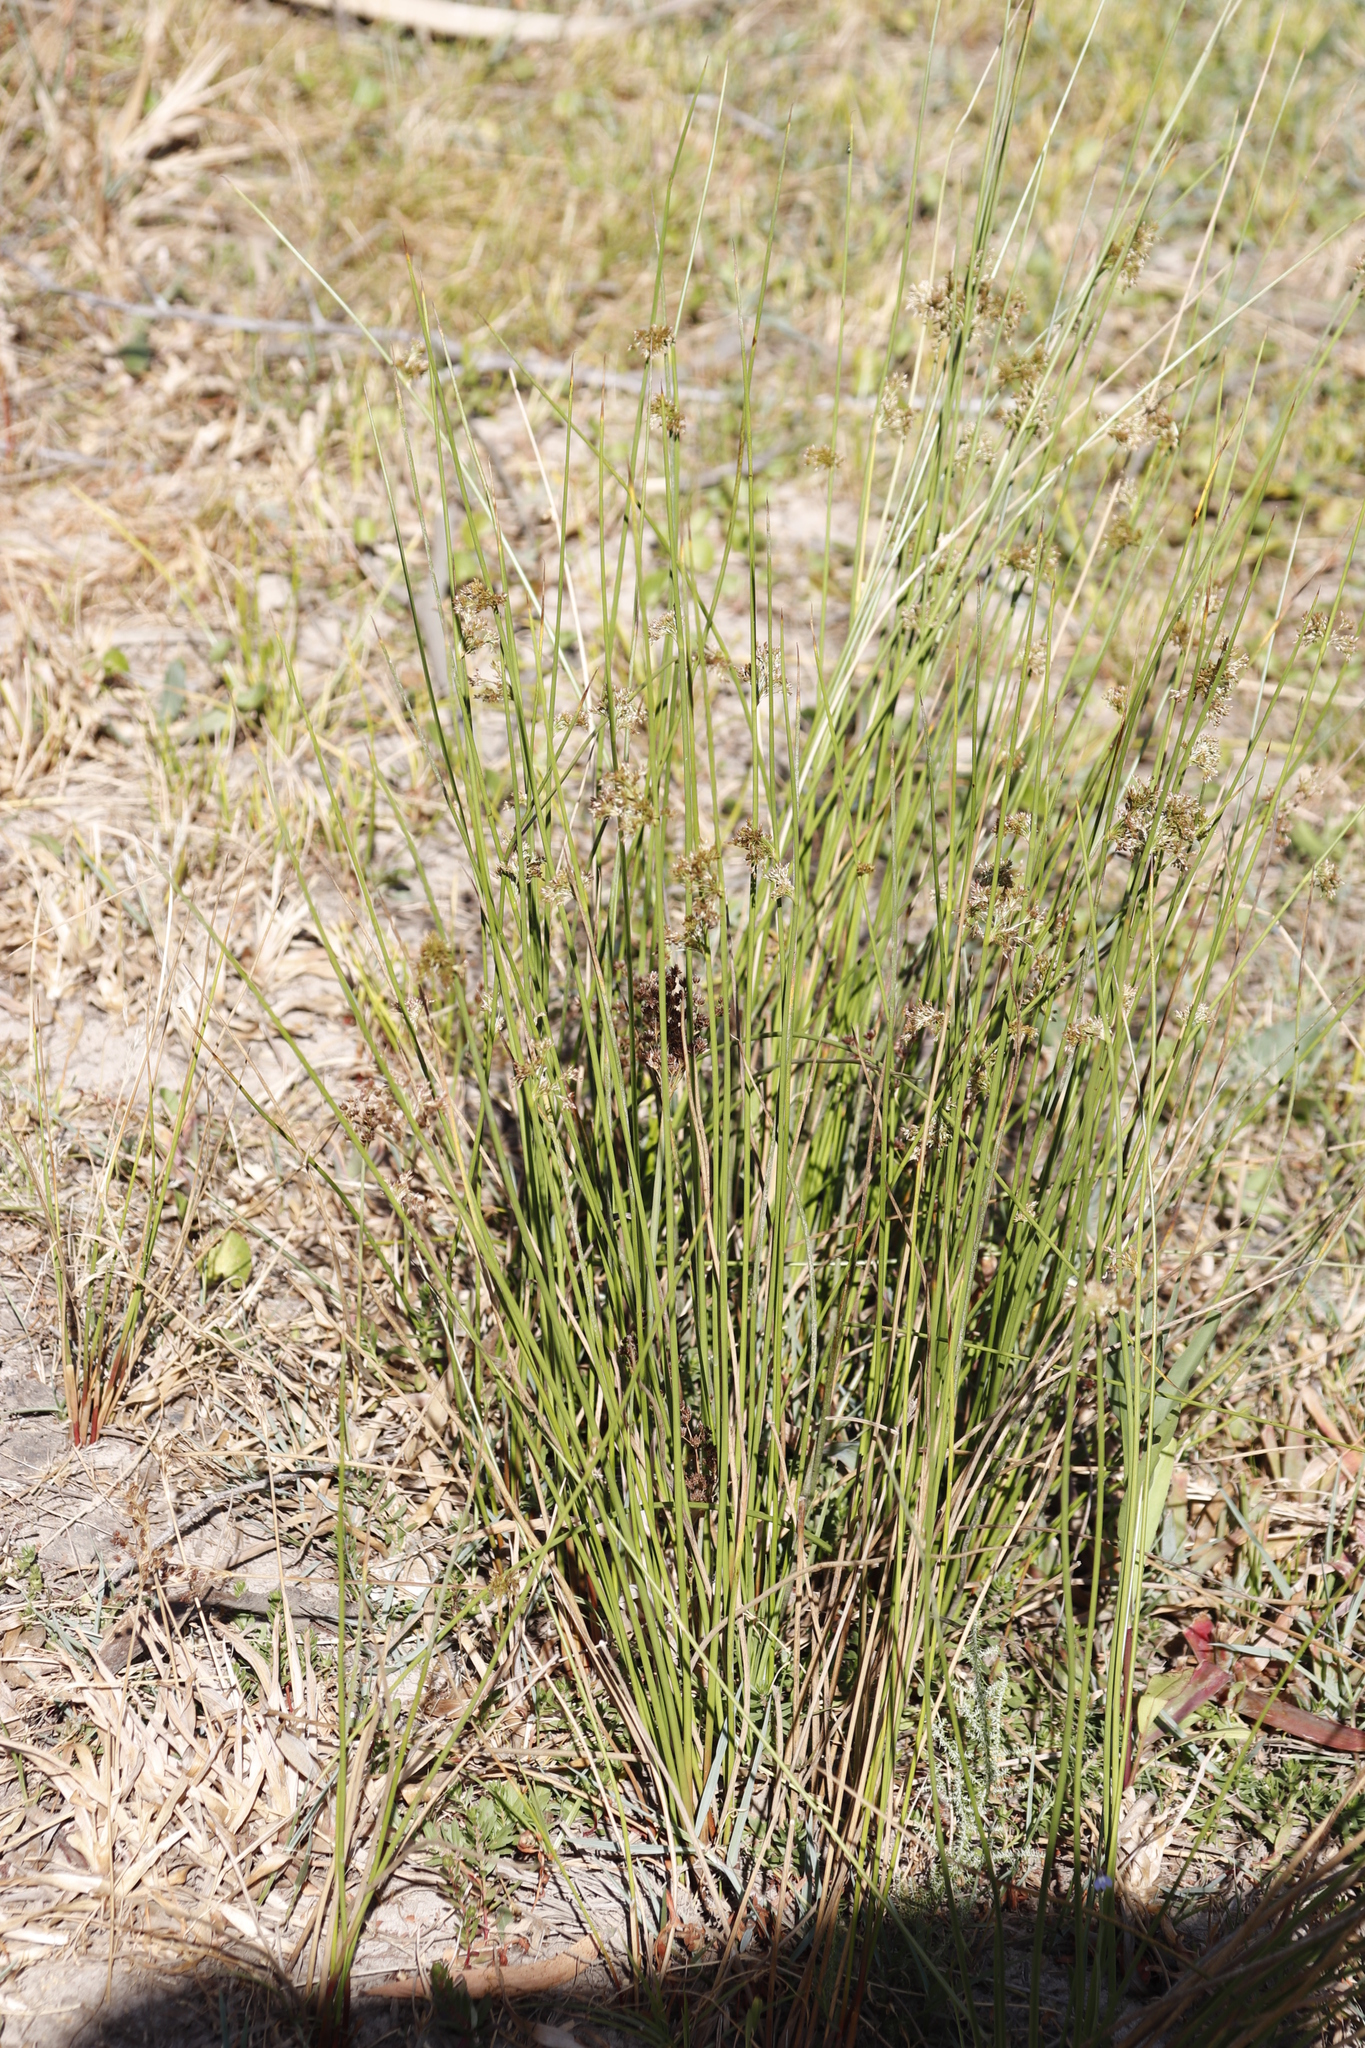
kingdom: Plantae
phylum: Tracheophyta
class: Liliopsida
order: Poales
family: Juncaceae
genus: Juncus
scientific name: Juncus effusus
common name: Soft rush
